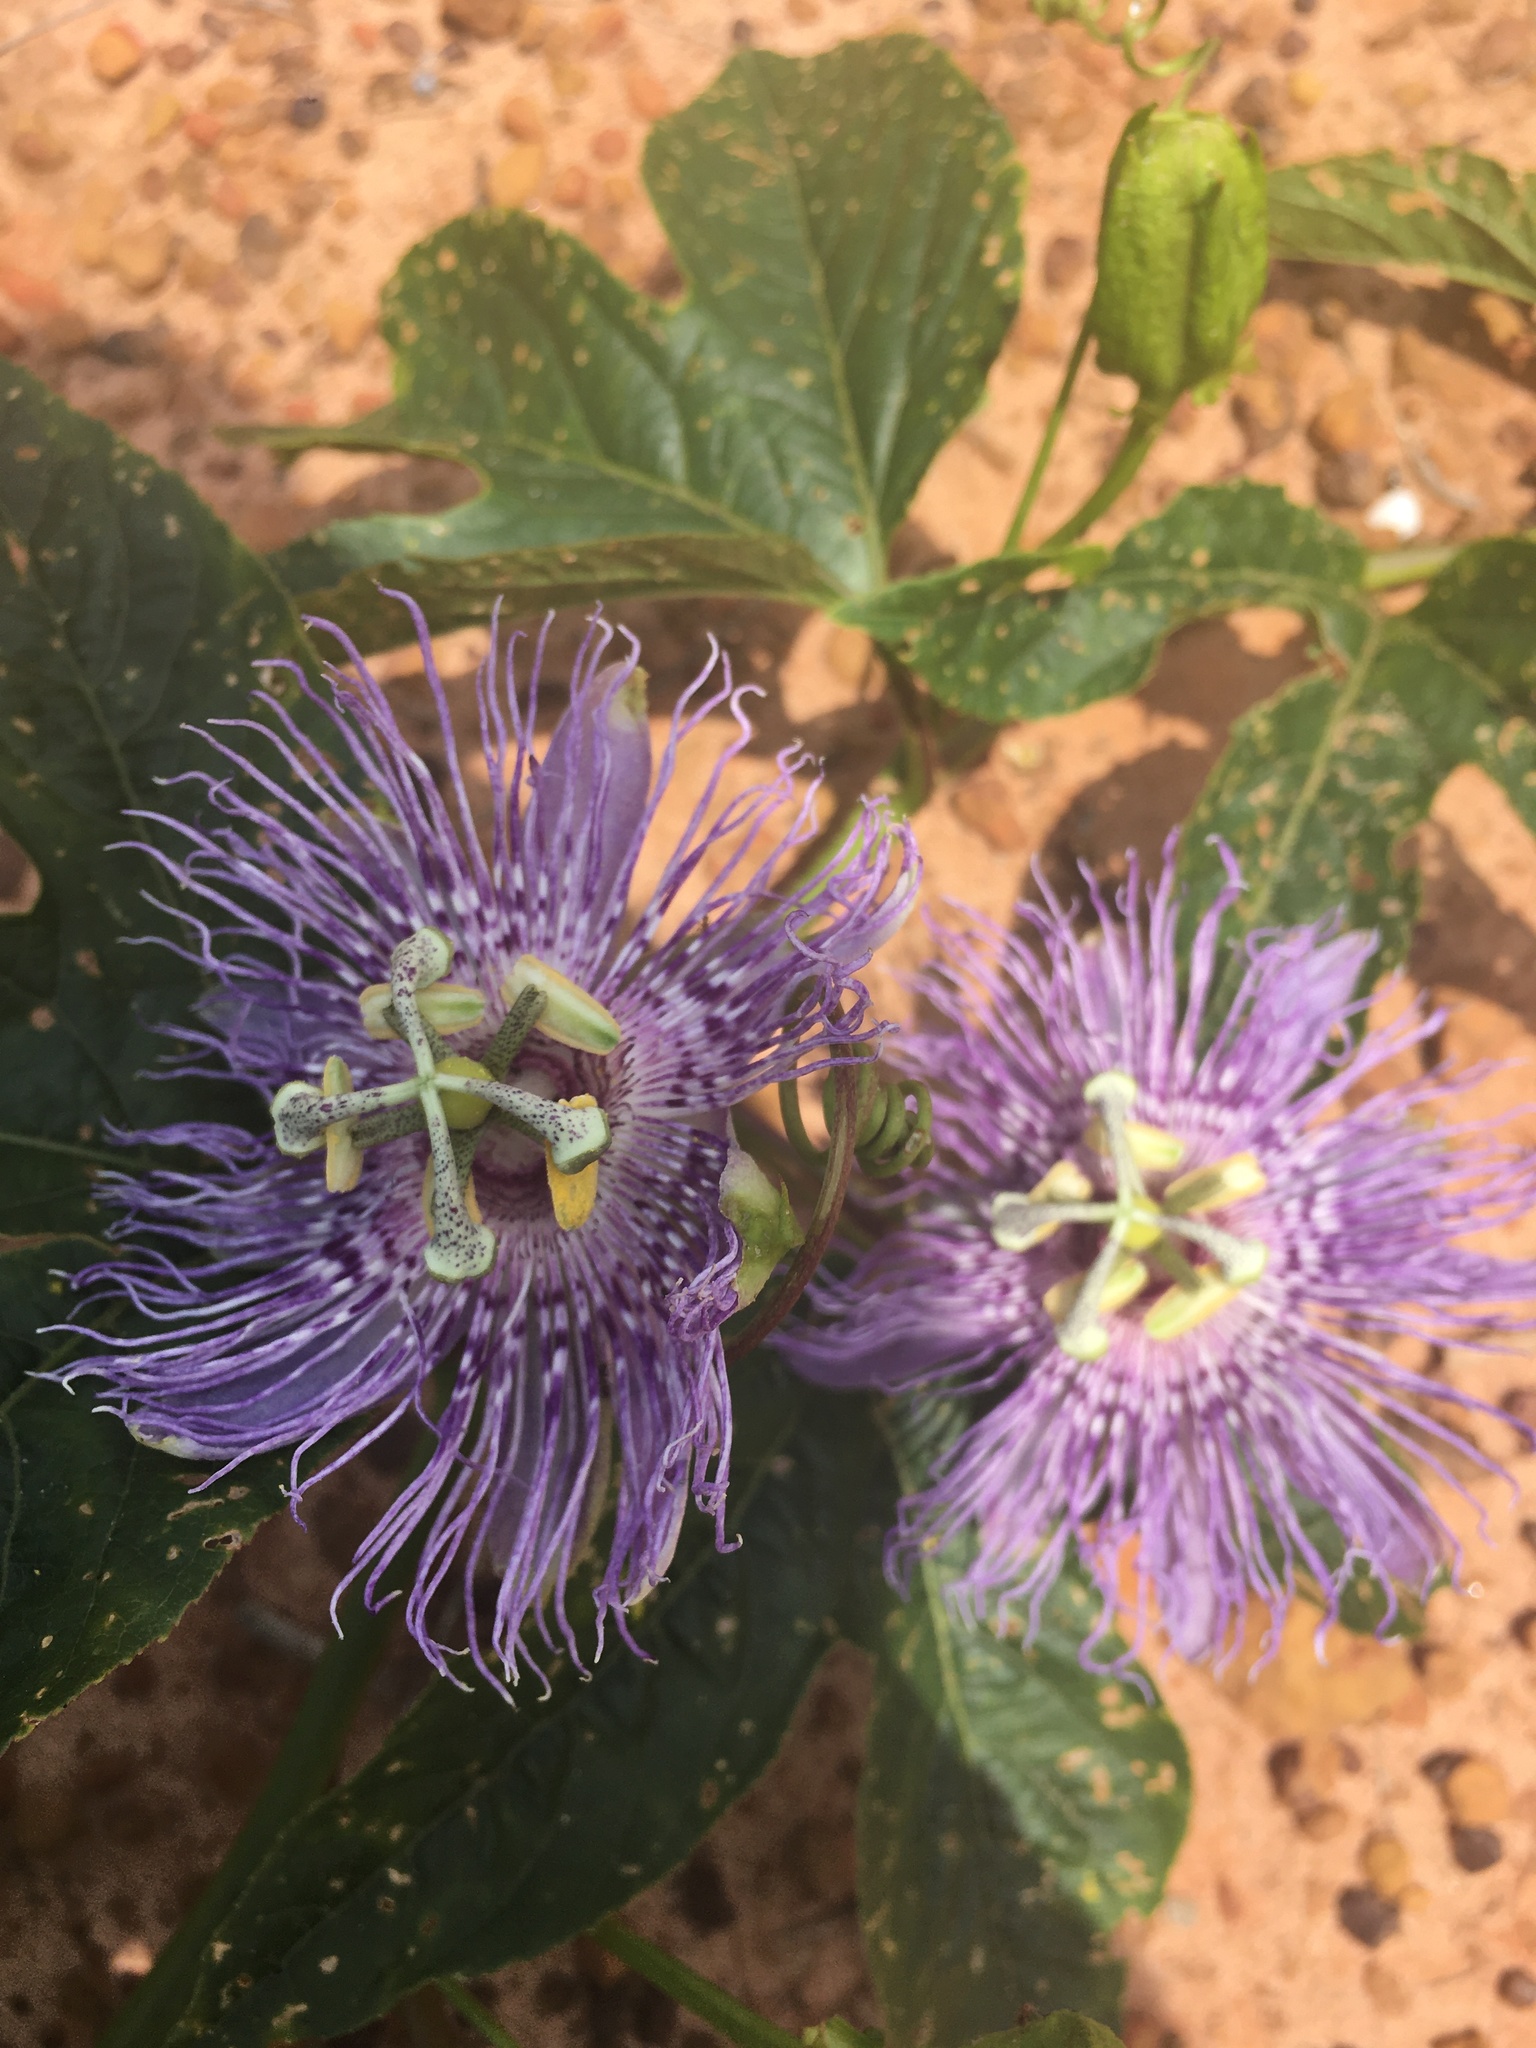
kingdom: Plantae
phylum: Tracheophyta
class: Magnoliopsida
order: Malpighiales
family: Passifloraceae
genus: Passiflora
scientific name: Passiflora incarnata
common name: Apricot-vine
